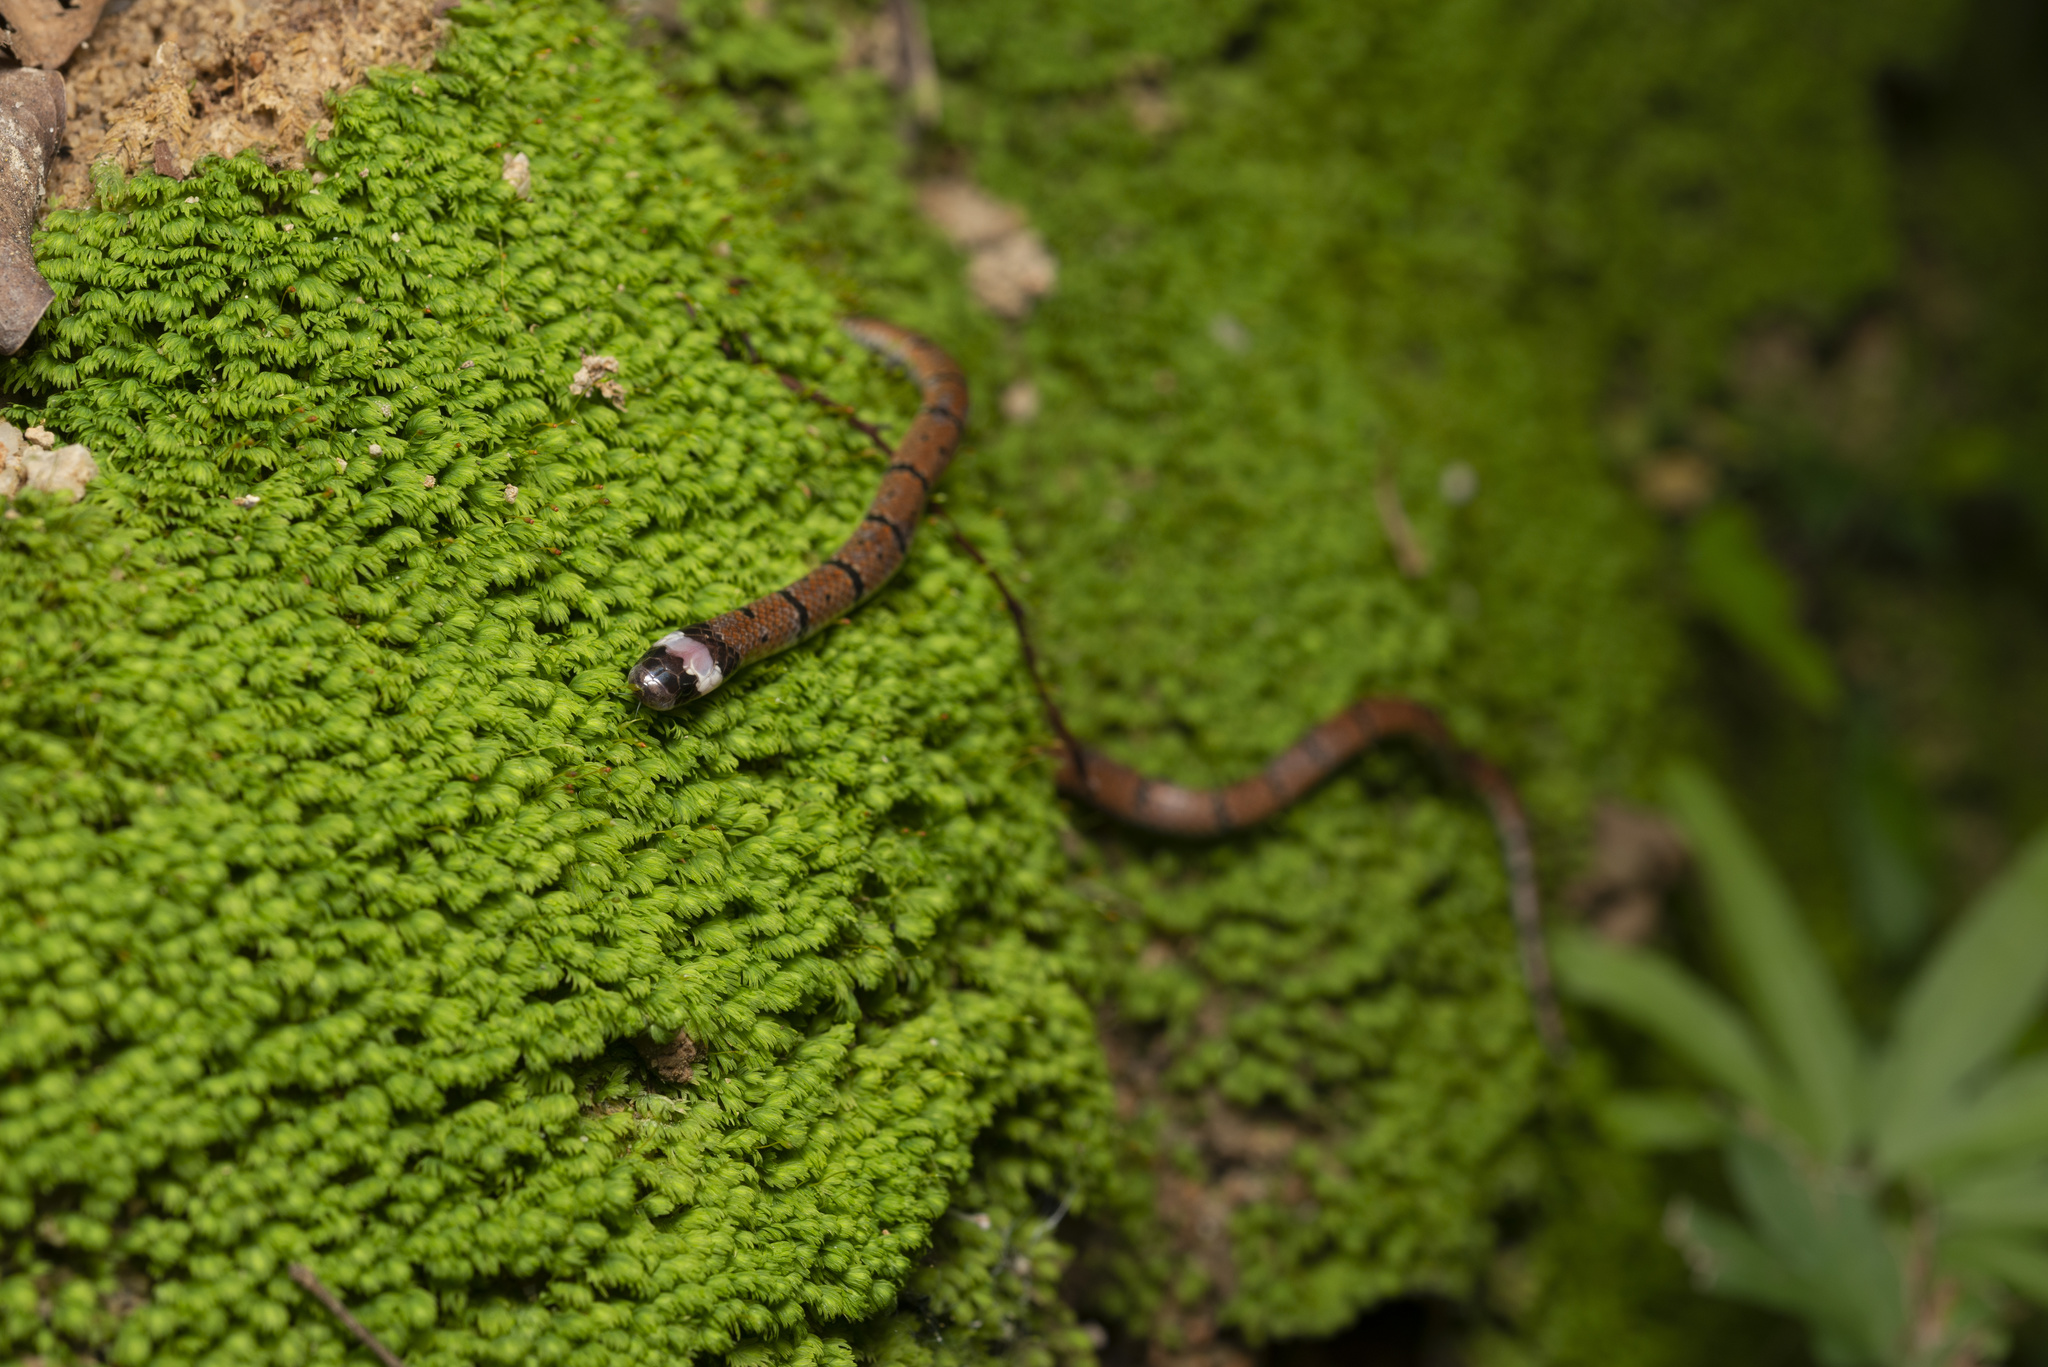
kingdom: Animalia
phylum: Chordata
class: Squamata
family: Elapidae
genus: Sinomicrurus
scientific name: Sinomicrurus
